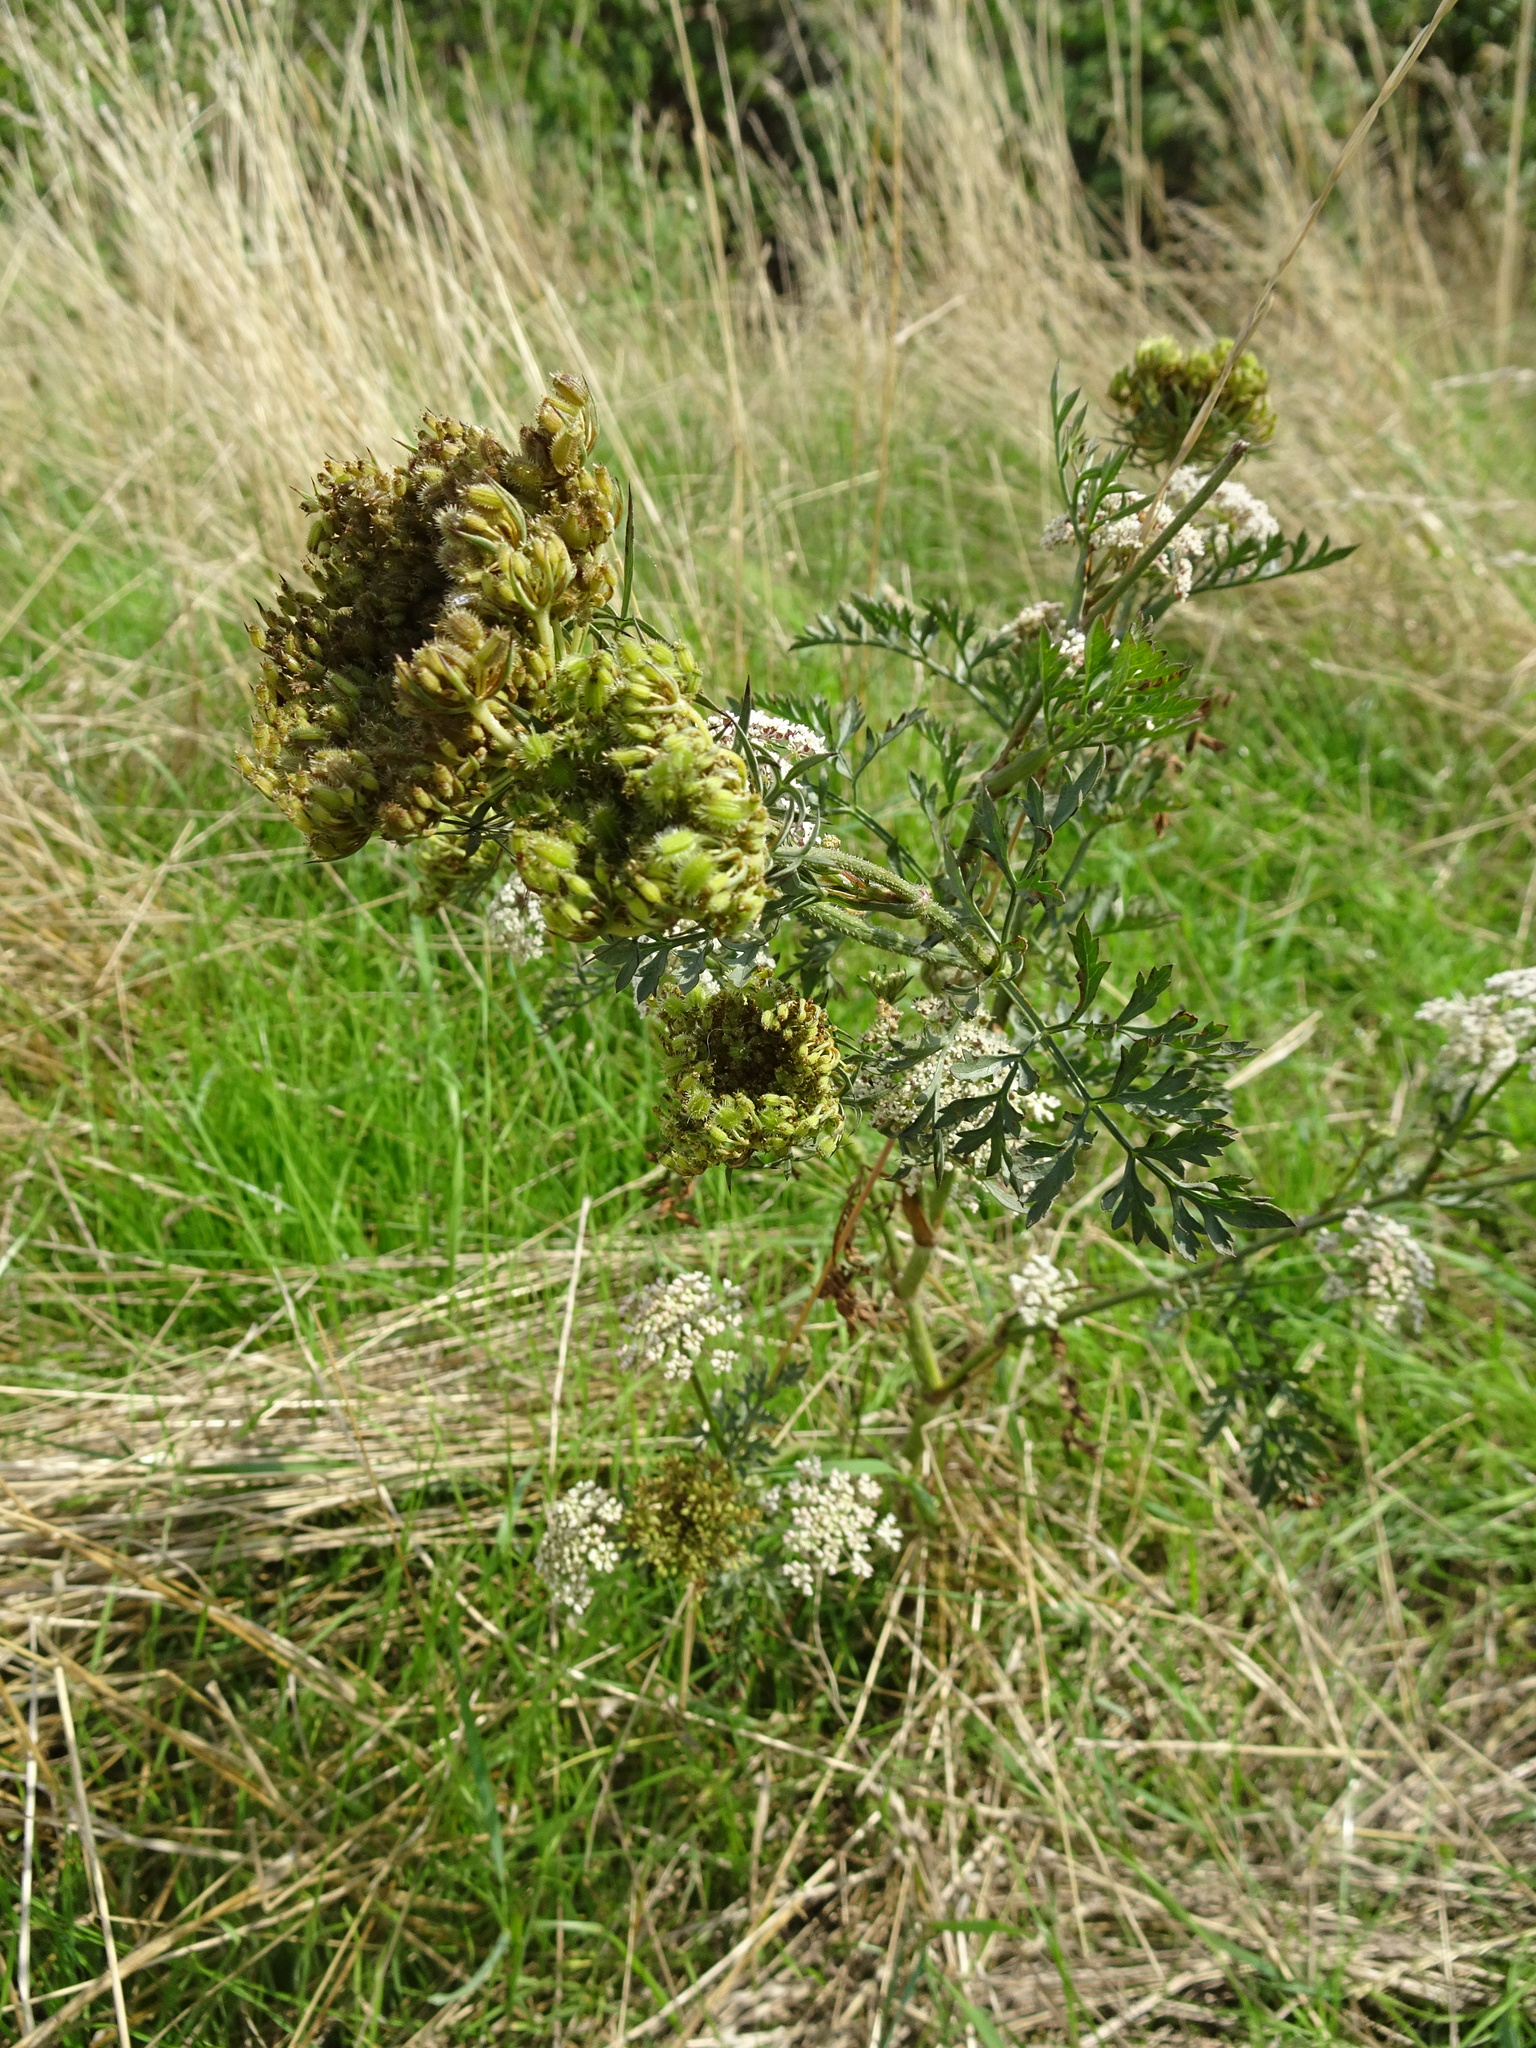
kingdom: Plantae
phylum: Tracheophyta
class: Magnoliopsida
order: Apiales
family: Apiaceae
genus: Daucus
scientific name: Daucus carota
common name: Wild carrot
